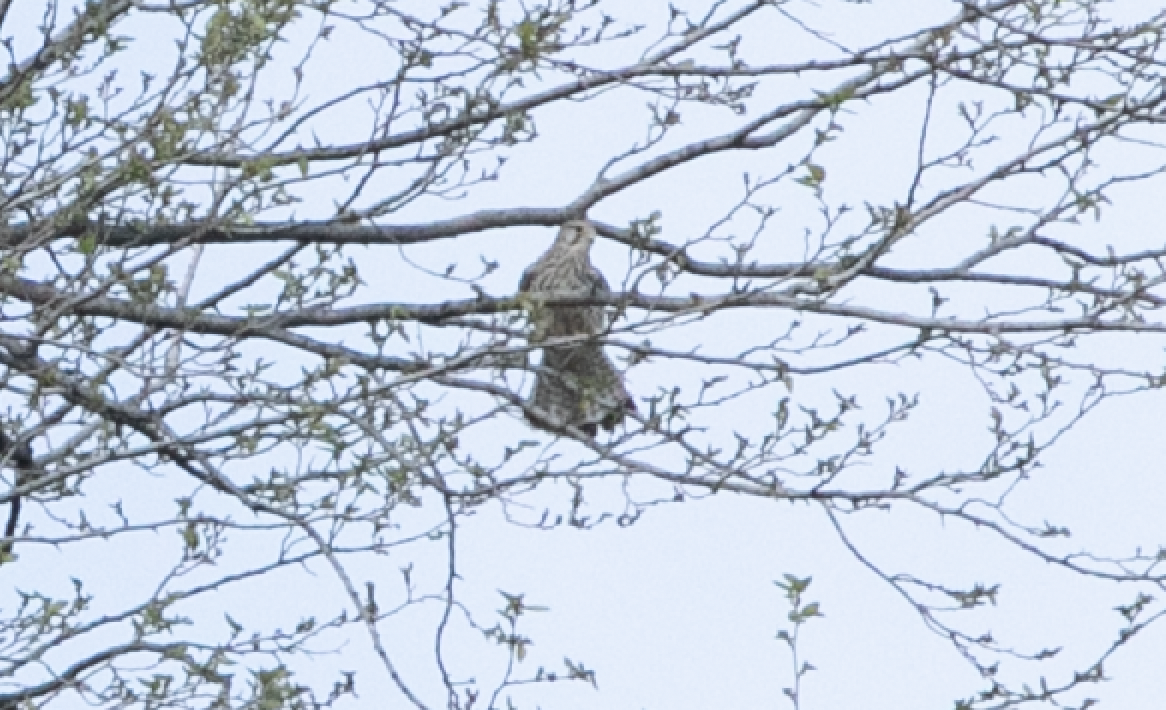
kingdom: Animalia
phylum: Chordata
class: Aves
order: Falconiformes
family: Falconidae
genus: Falco
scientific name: Falco tinnunculus
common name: Common kestrel
